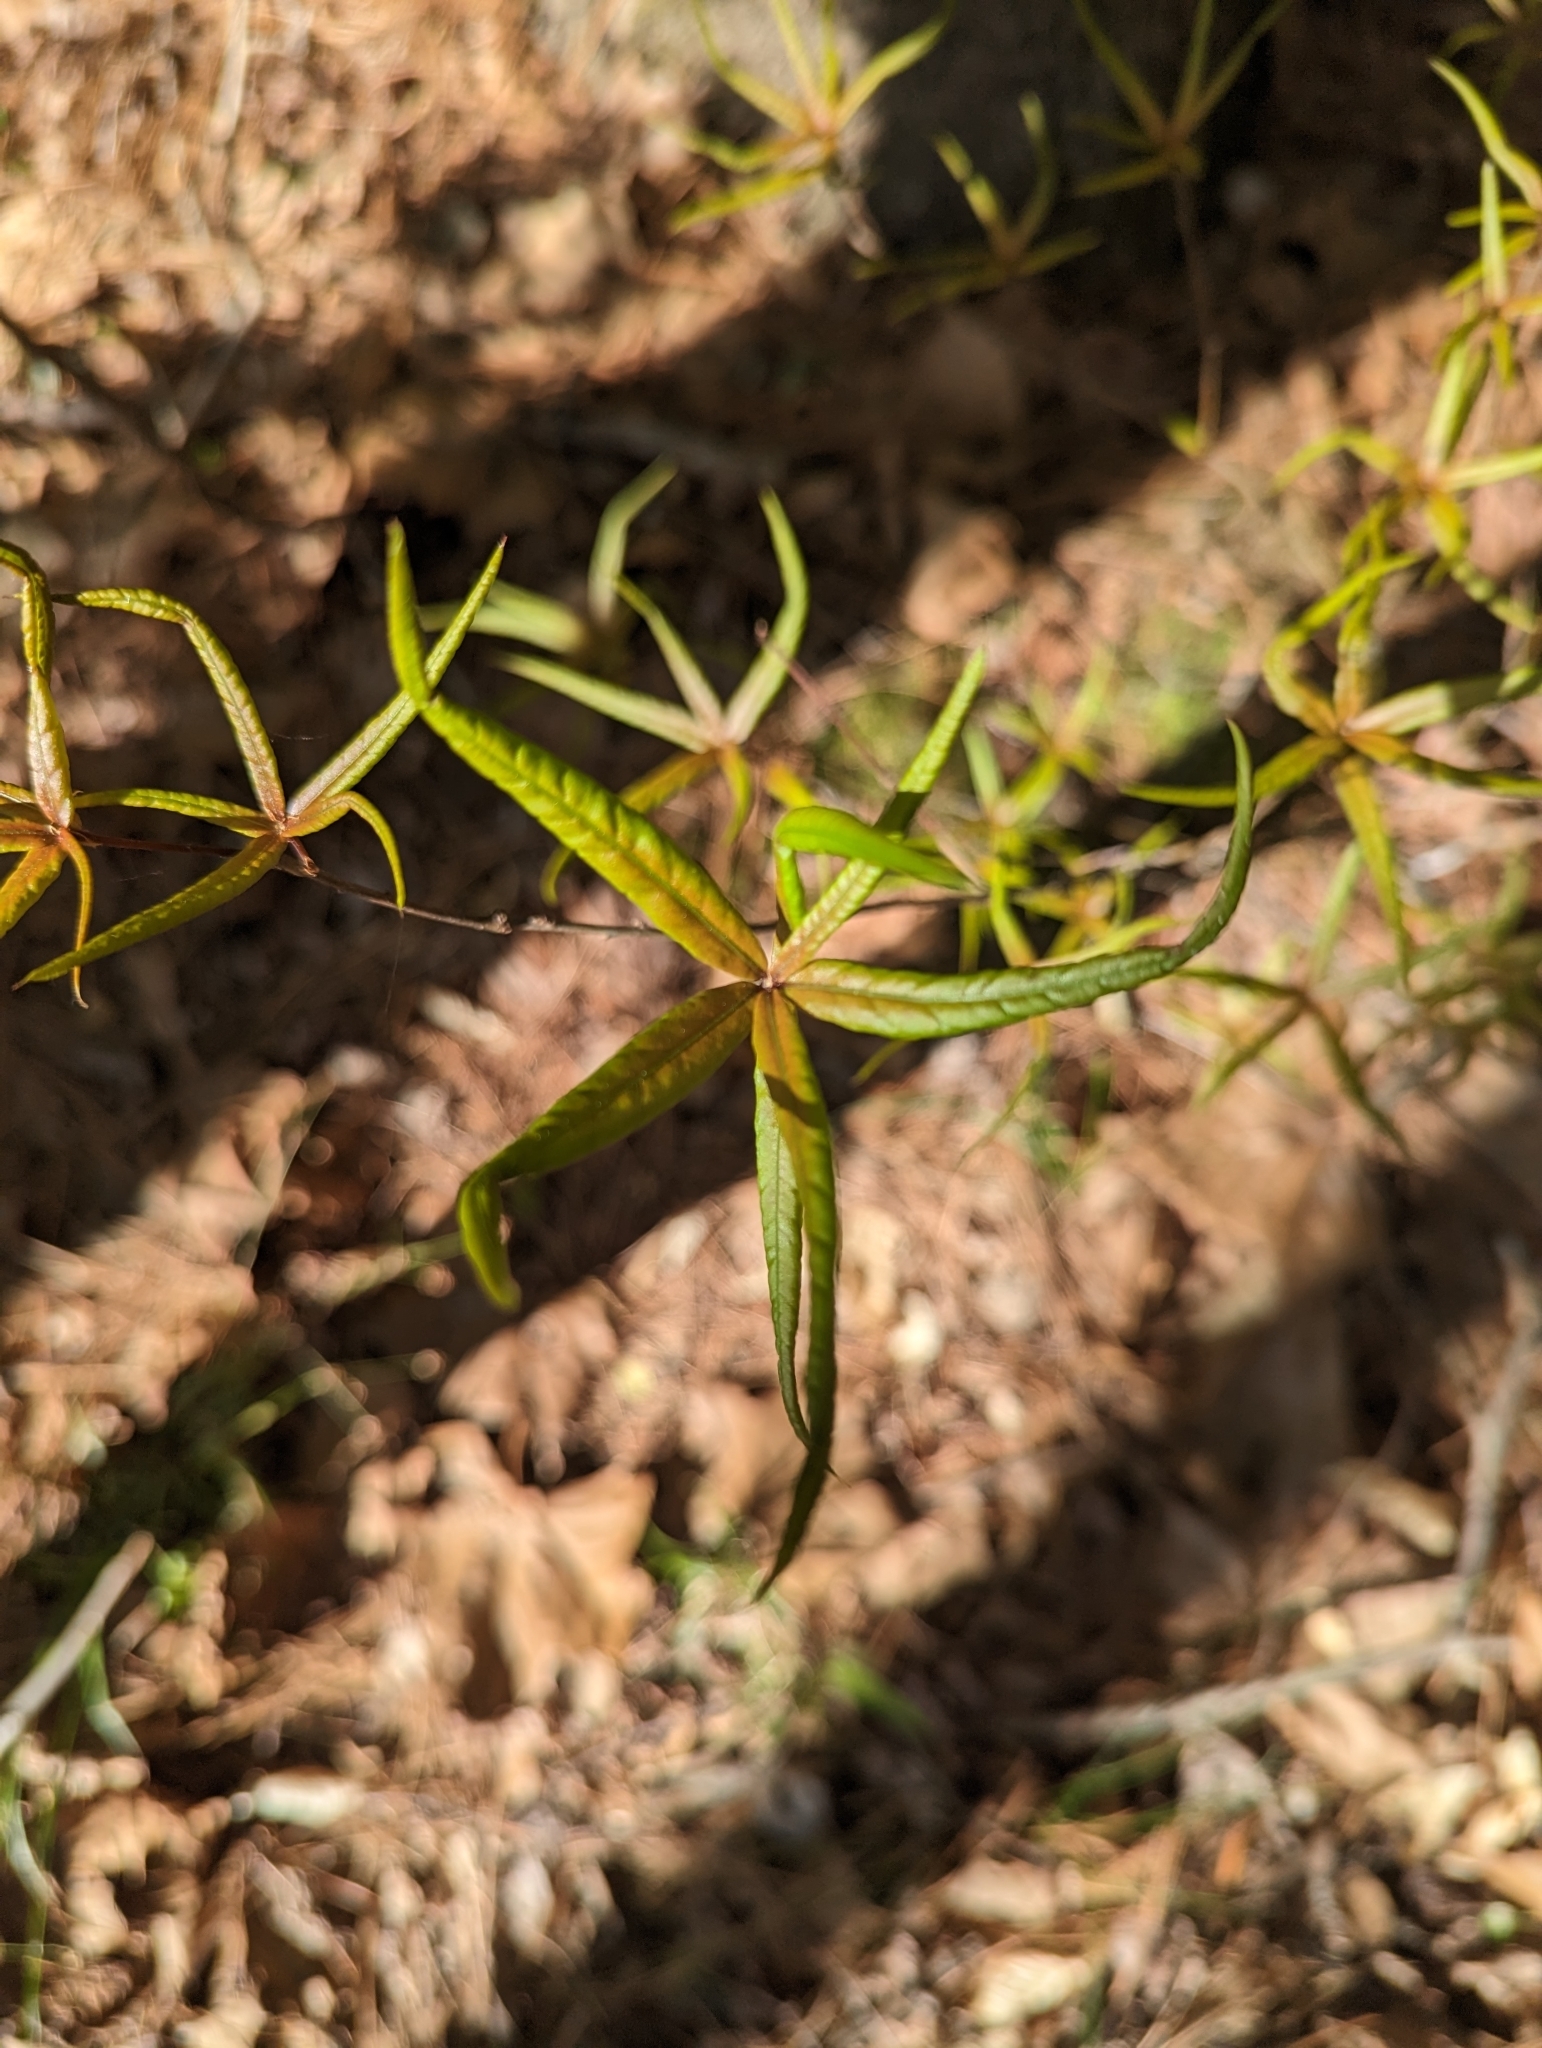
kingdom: Plantae
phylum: Tracheophyta
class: Magnoliopsida
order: Fagales
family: Fagaceae
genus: Quercus
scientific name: Quercus phellos
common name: Willow oak
